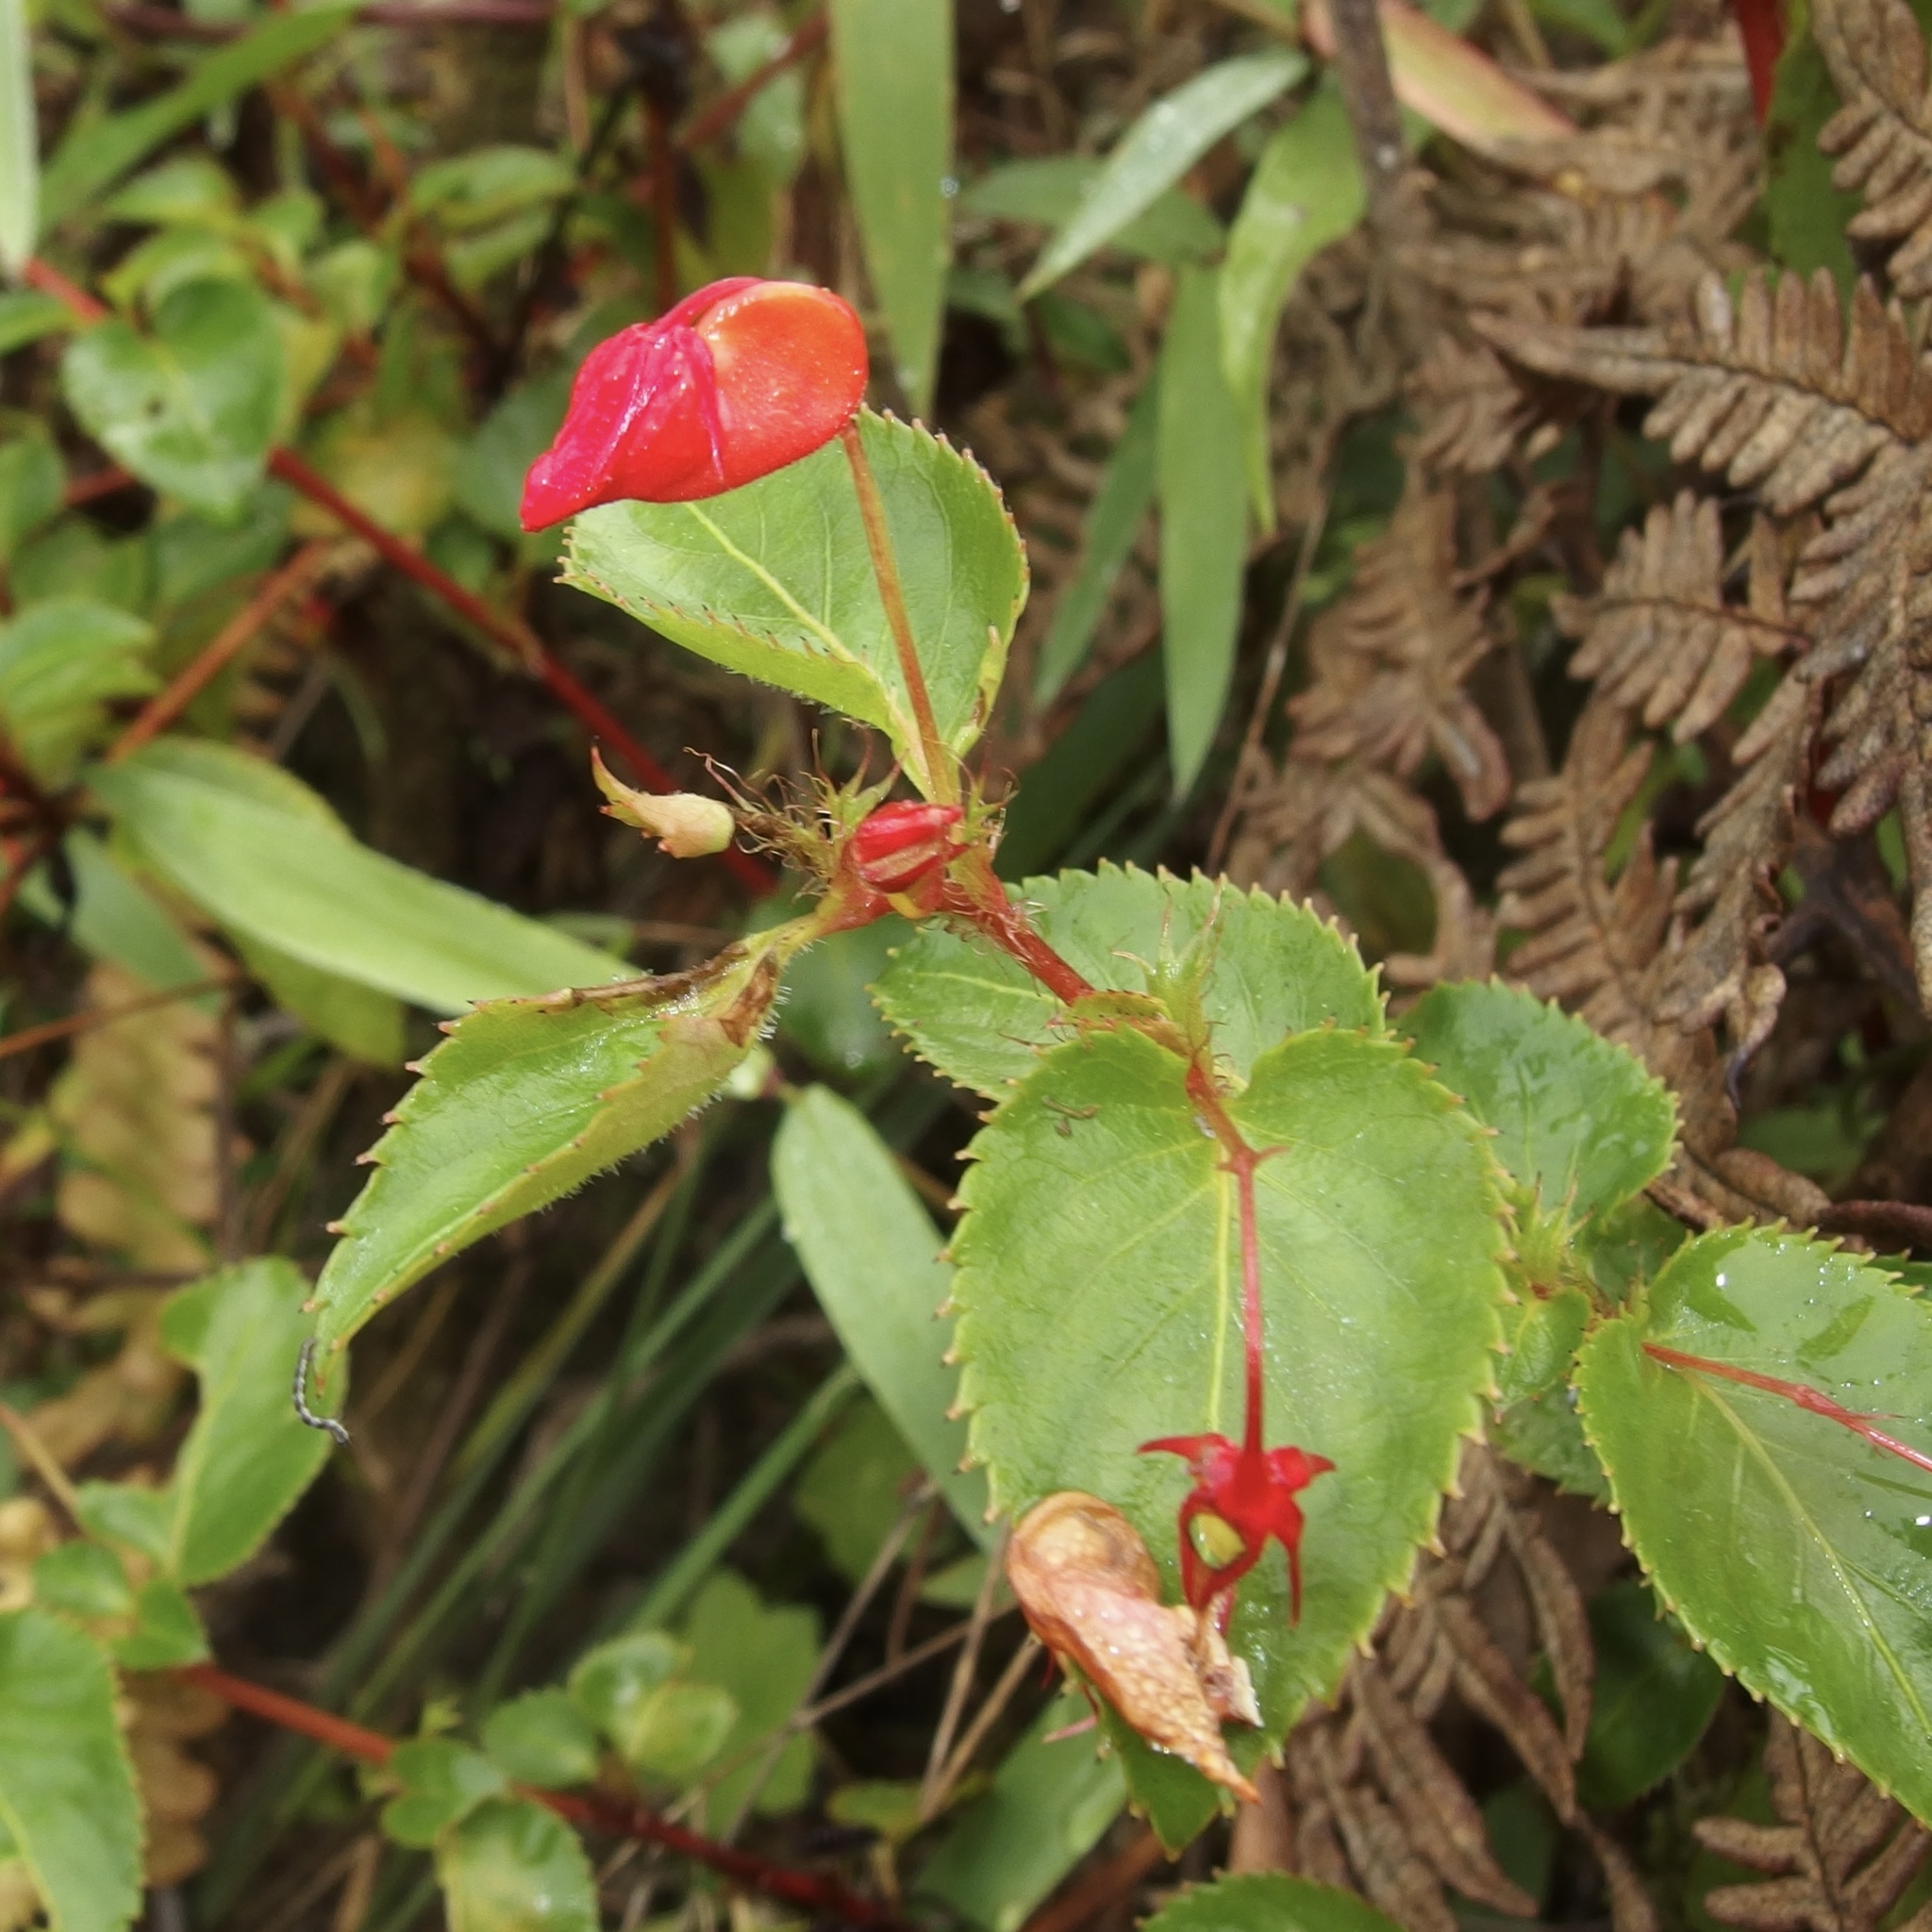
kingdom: Plantae
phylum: Tracheophyta
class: Magnoliopsida
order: Malpighiales
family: Violaceae
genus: Viola
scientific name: Viola arguta
